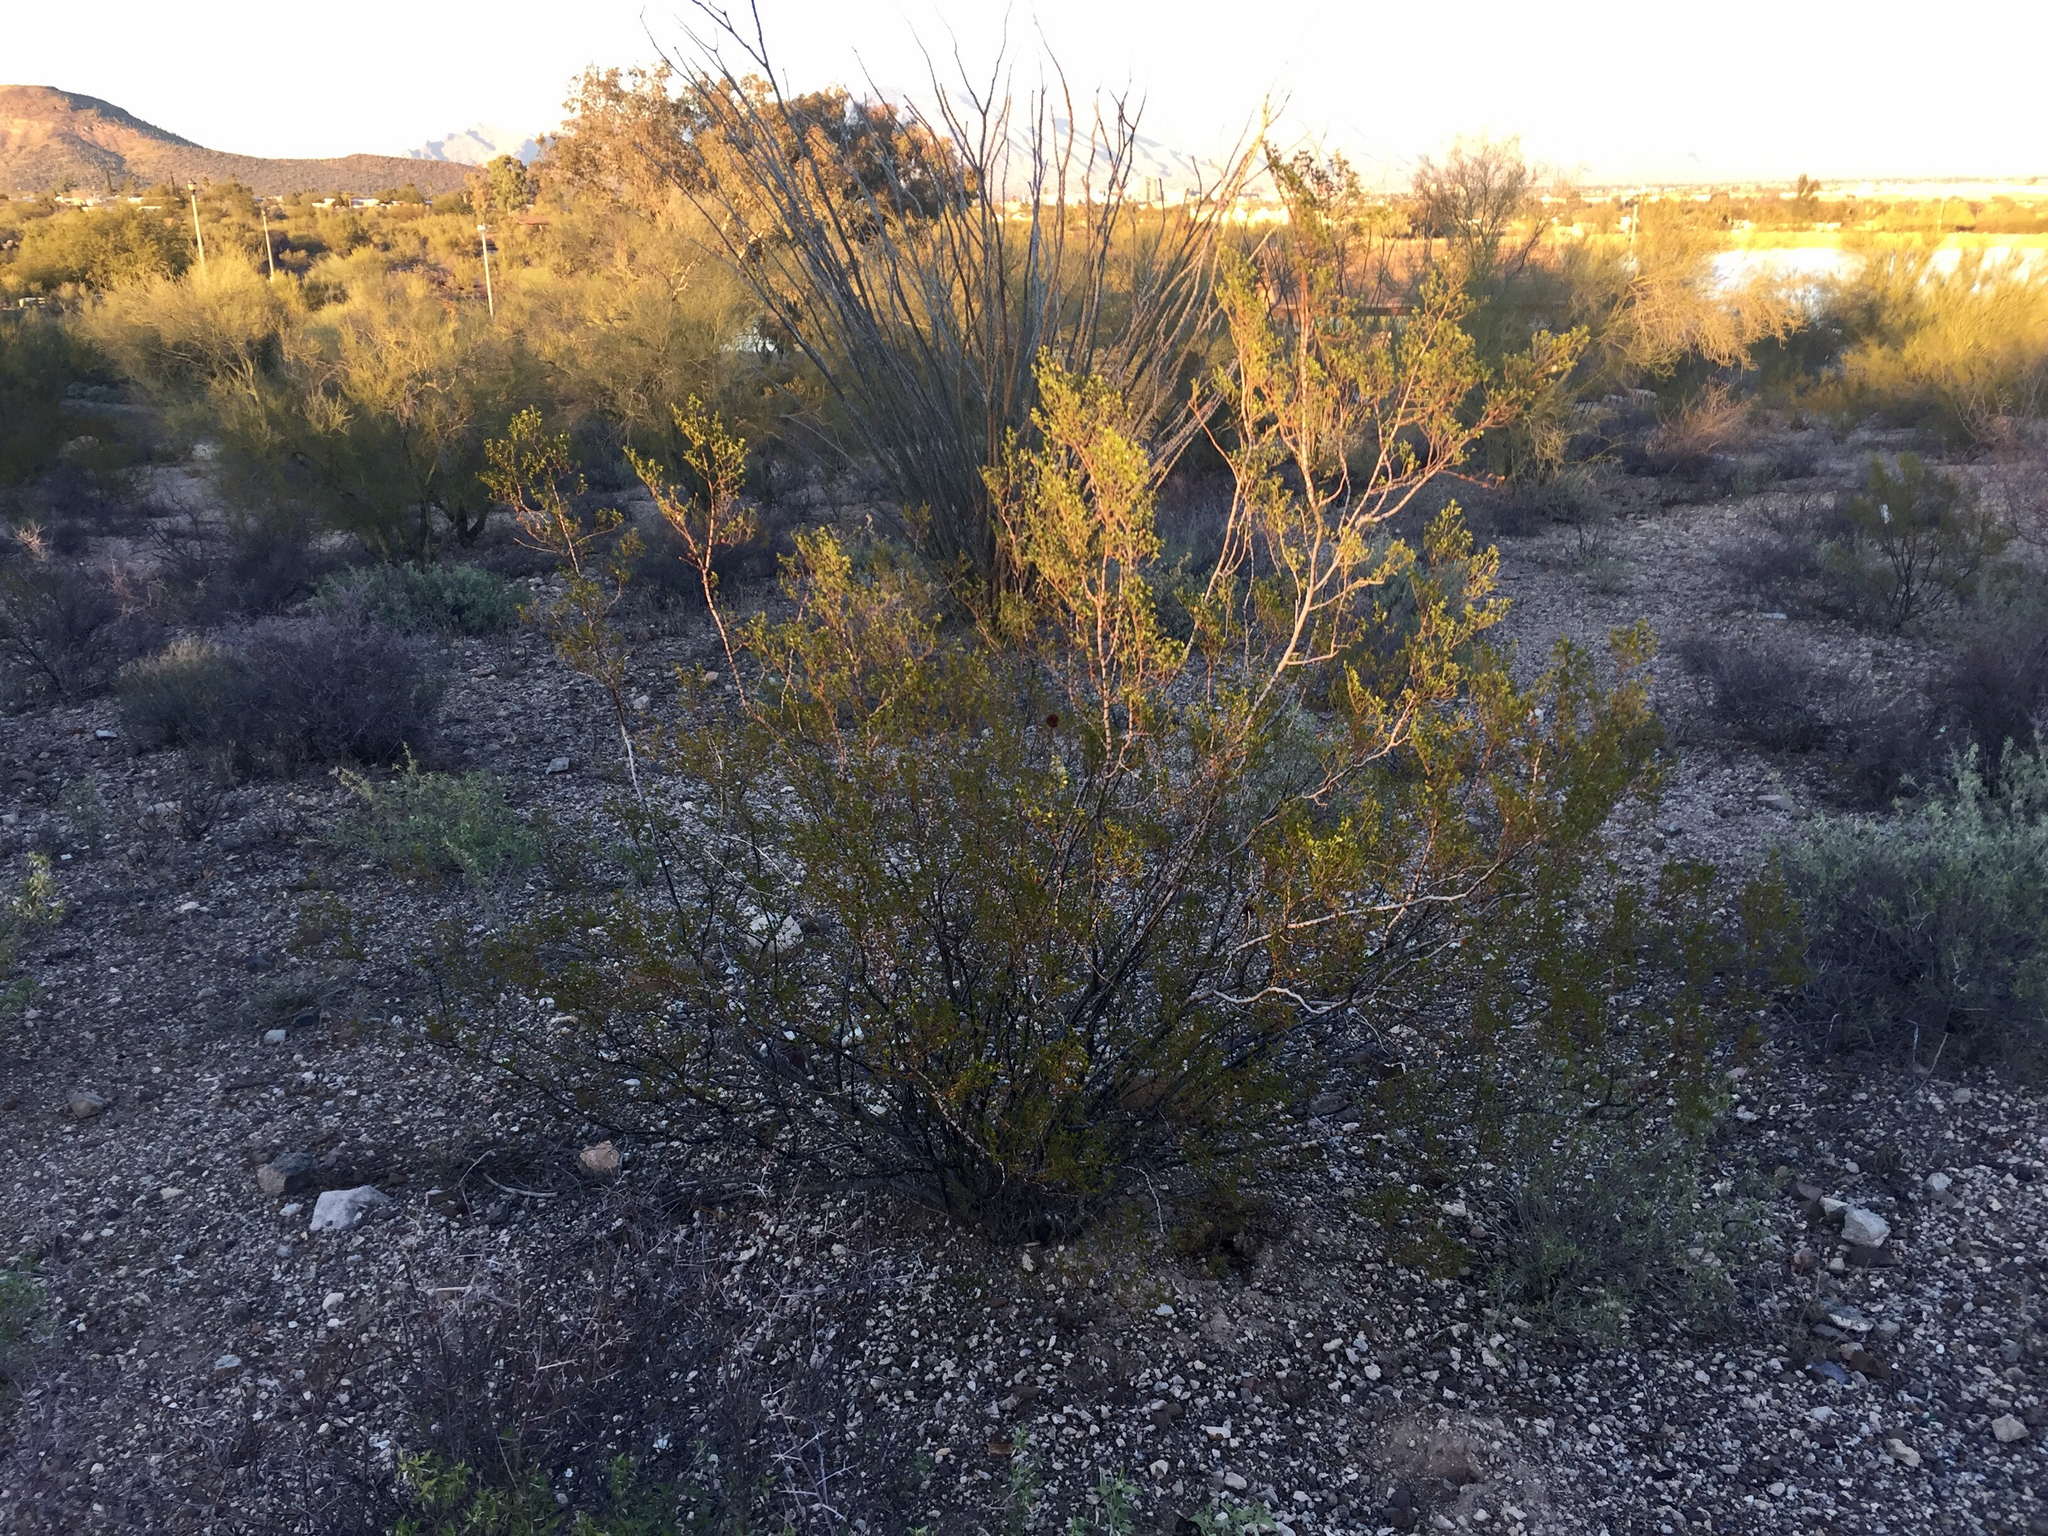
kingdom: Plantae
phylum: Tracheophyta
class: Magnoliopsida
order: Zygophyllales
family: Zygophyllaceae
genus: Larrea
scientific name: Larrea tridentata
